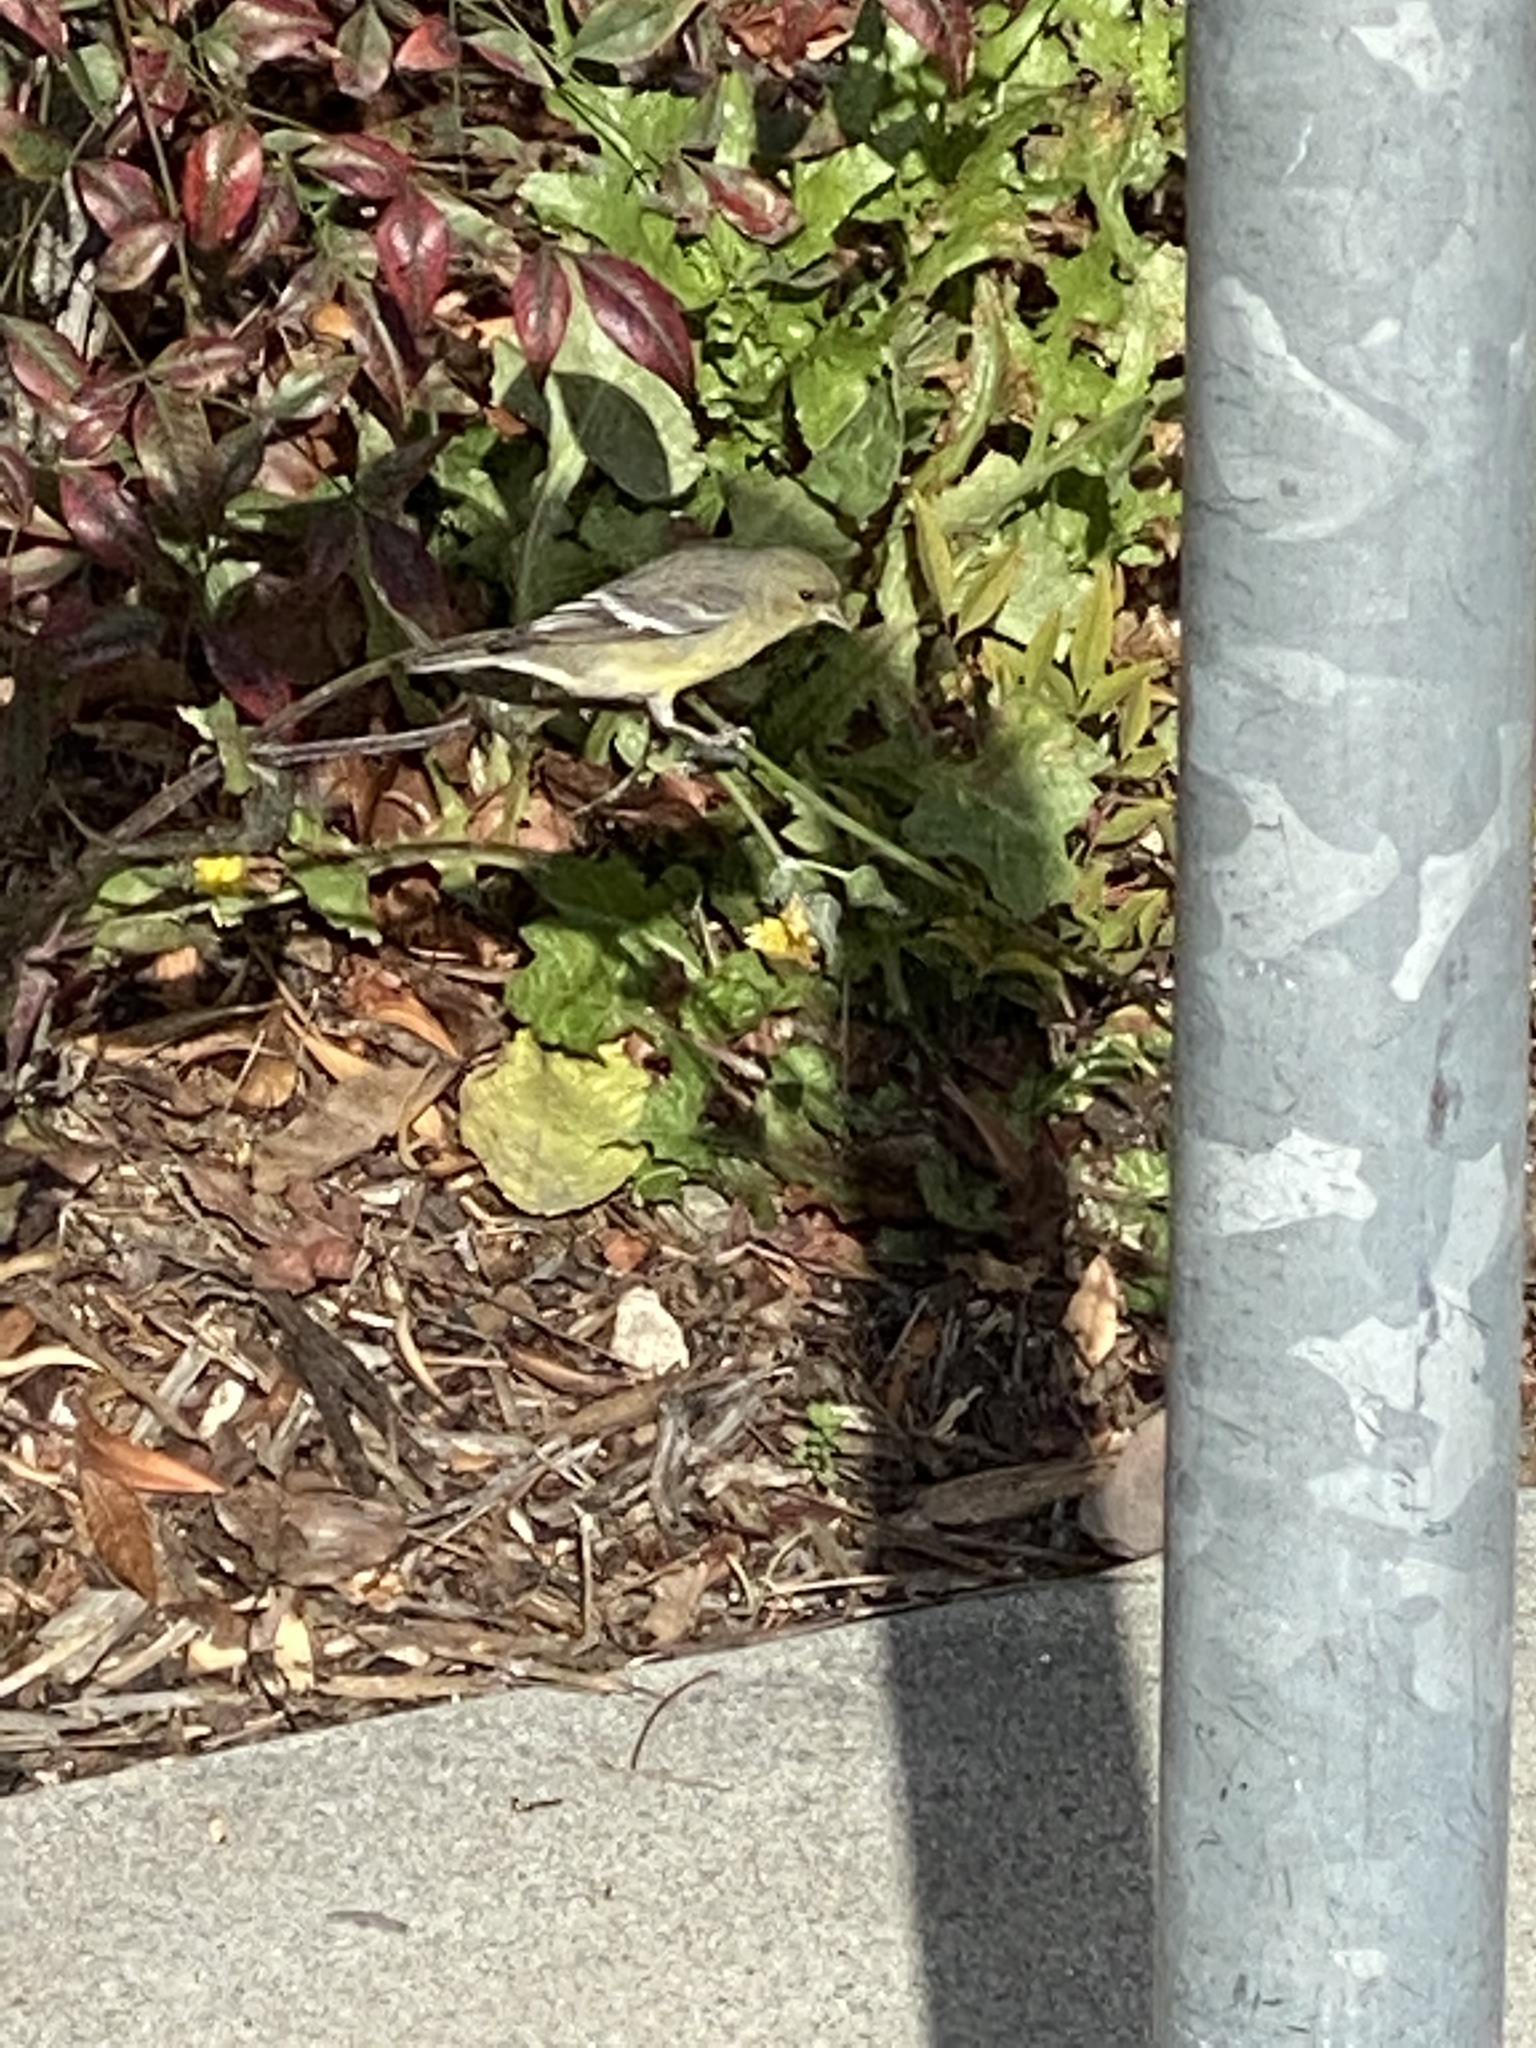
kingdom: Animalia
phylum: Chordata
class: Aves
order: Passeriformes
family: Fringillidae
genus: Spinus
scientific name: Spinus psaltria
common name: Lesser goldfinch
